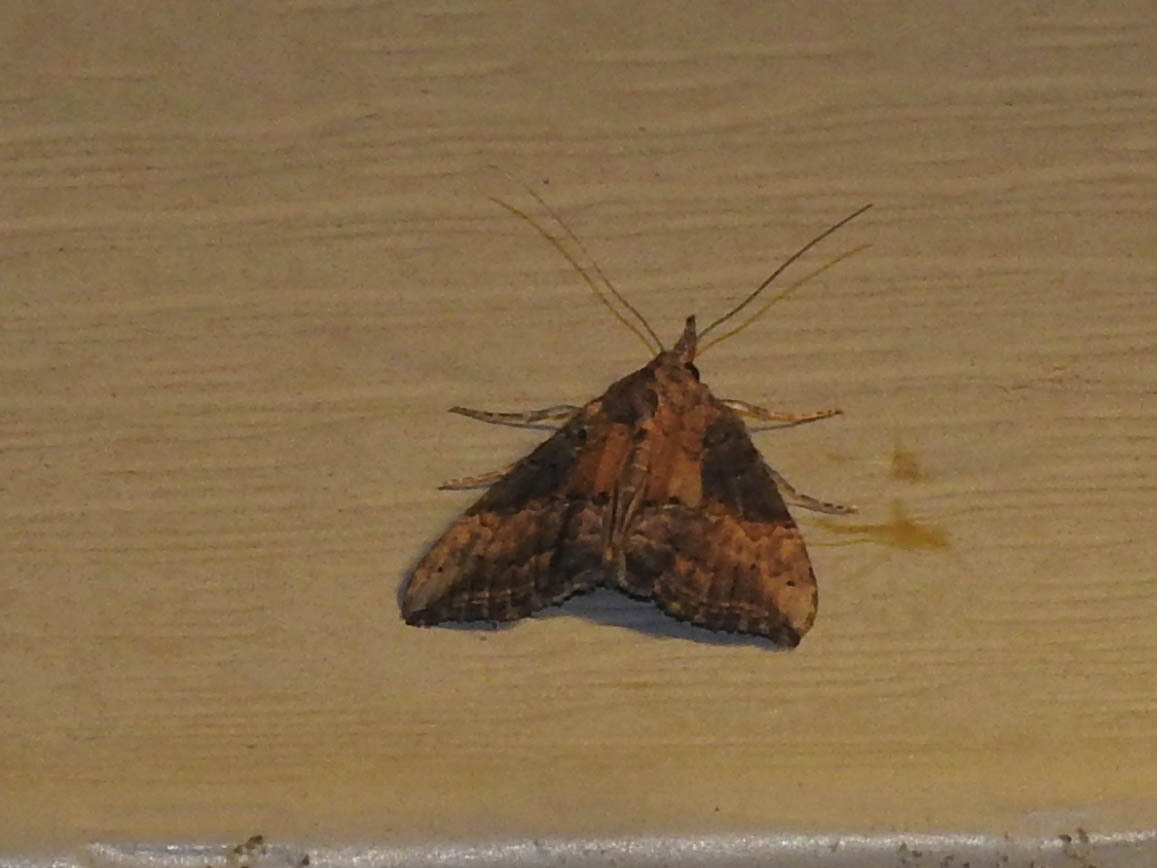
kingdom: Animalia
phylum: Arthropoda
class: Insecta
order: Lepidoptera
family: Erebidae
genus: Hypena
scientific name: Hypena scabra
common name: Green cloverworm
